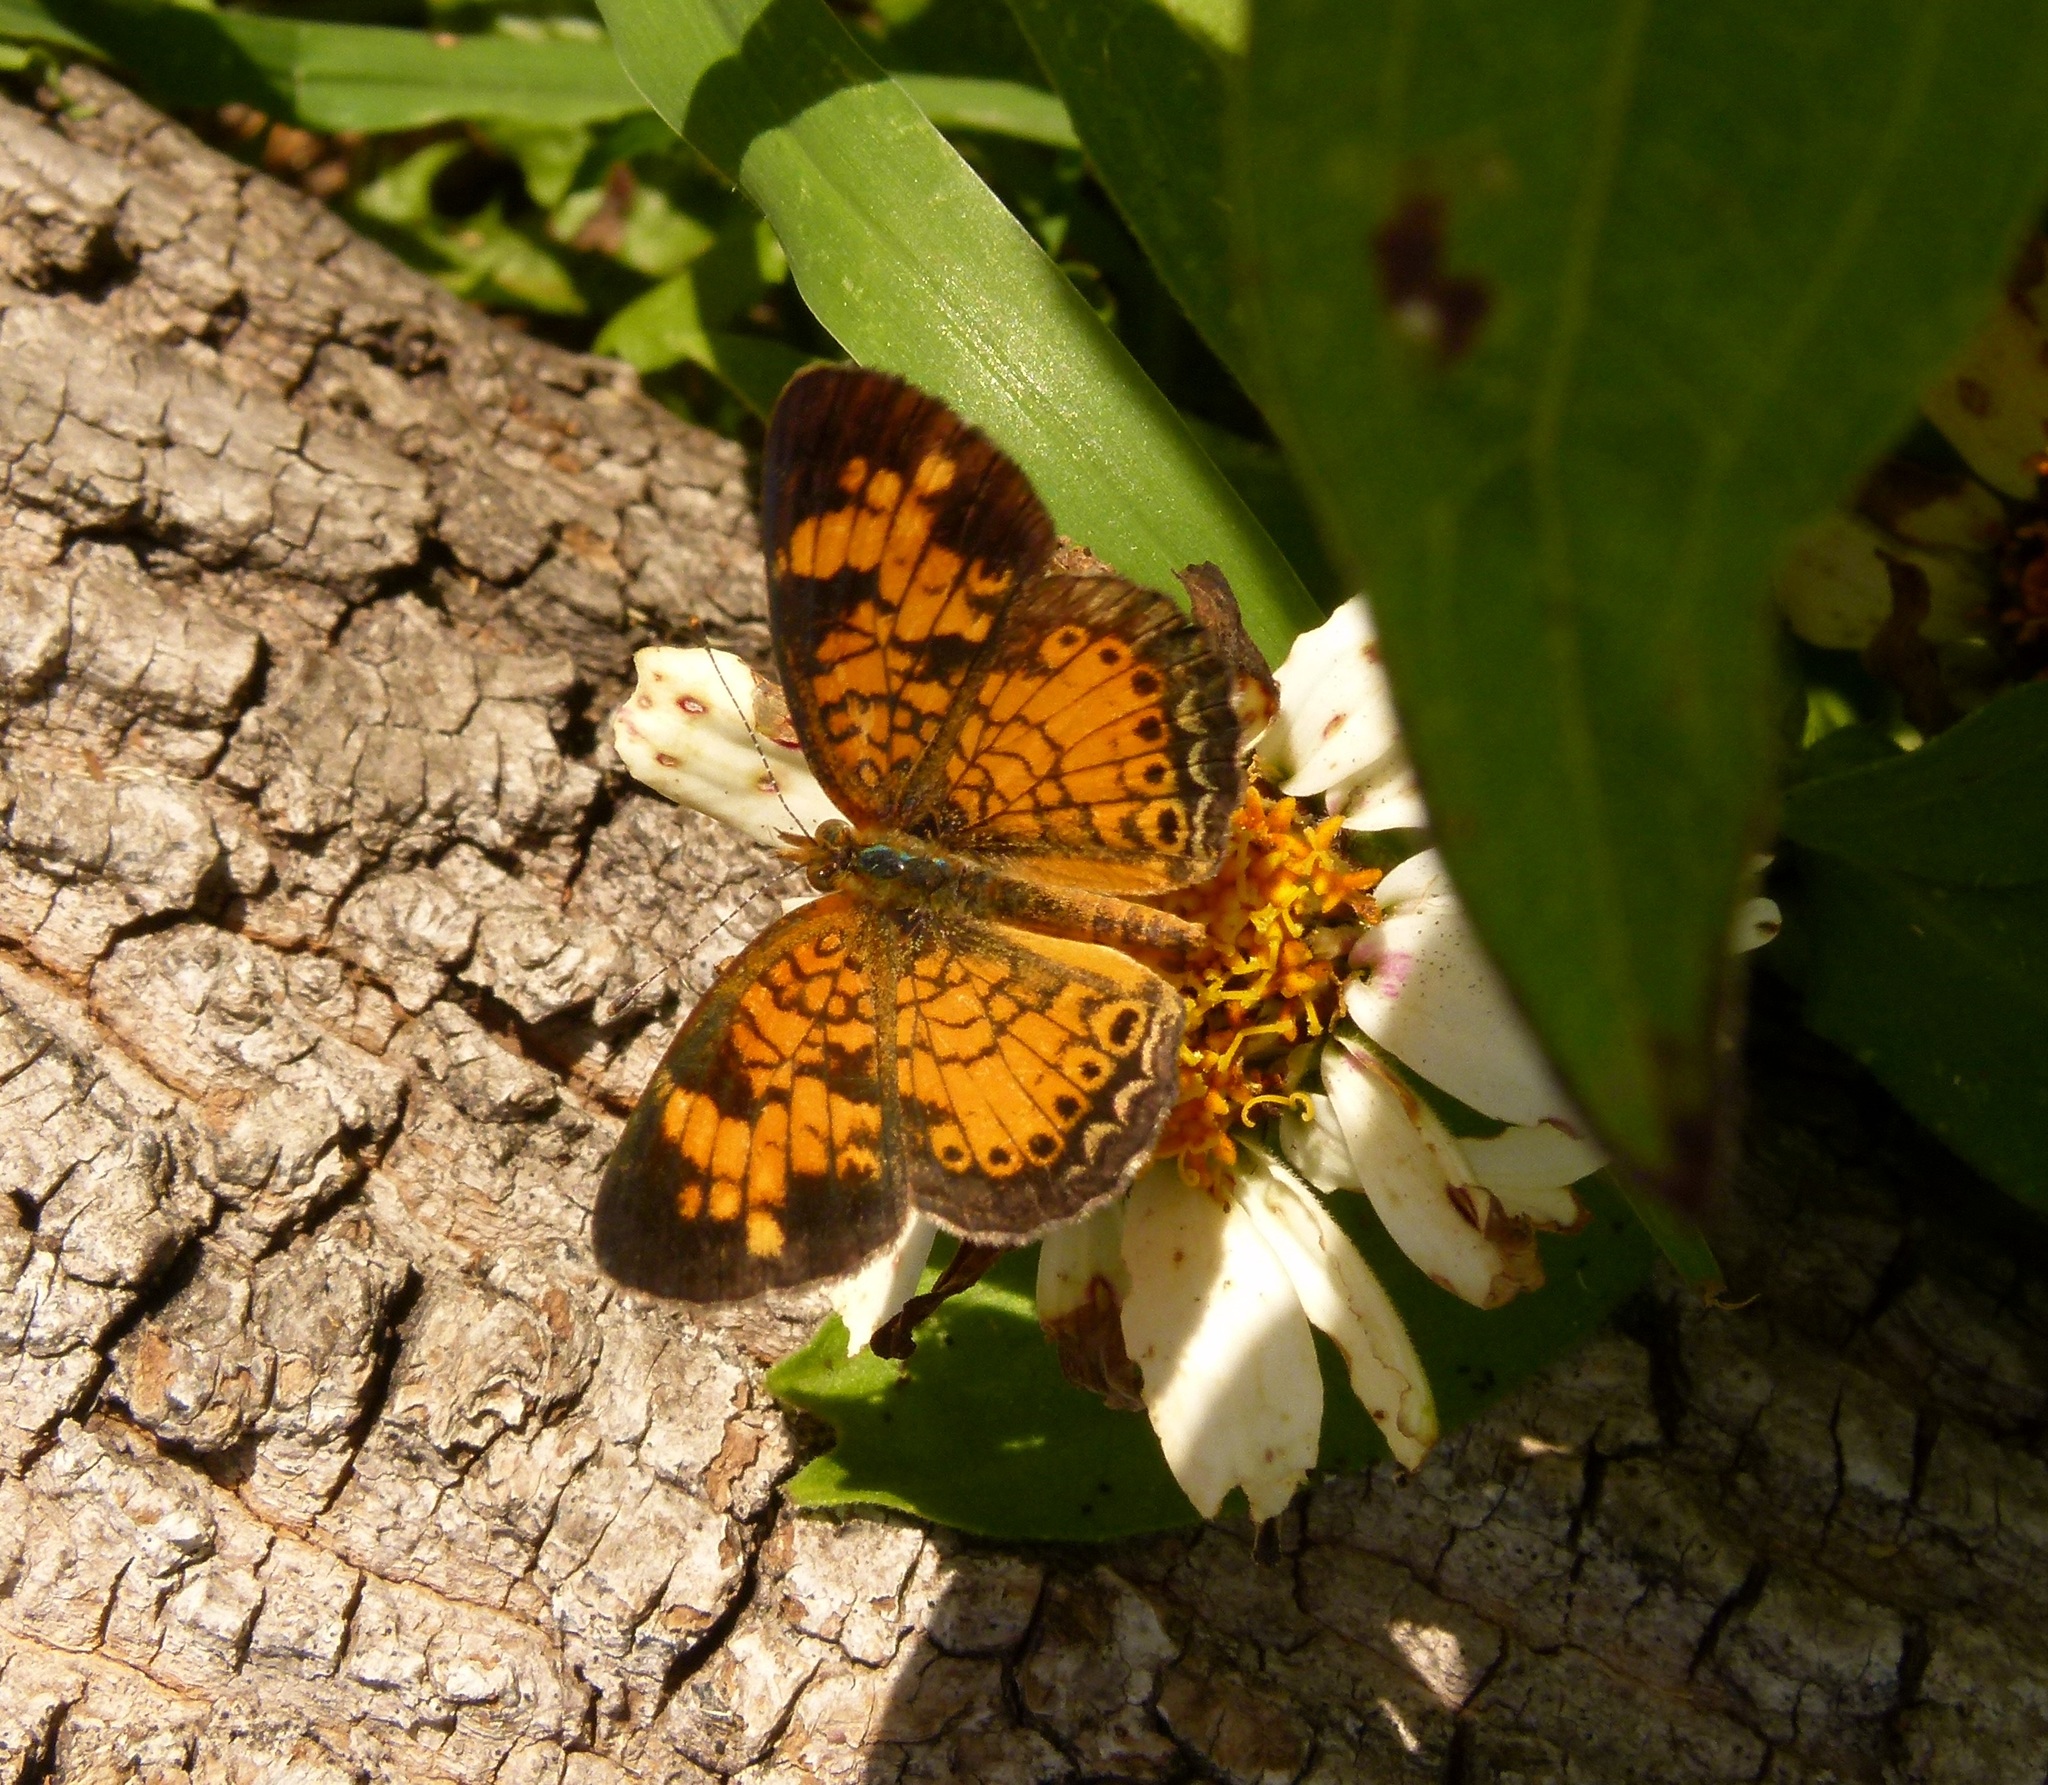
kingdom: Animalia
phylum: Arthropoda
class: Insecta
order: Lepidoptera
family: Nymphalidae
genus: Phyciodes
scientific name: Phyciodes tharos
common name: Pearl crescent
